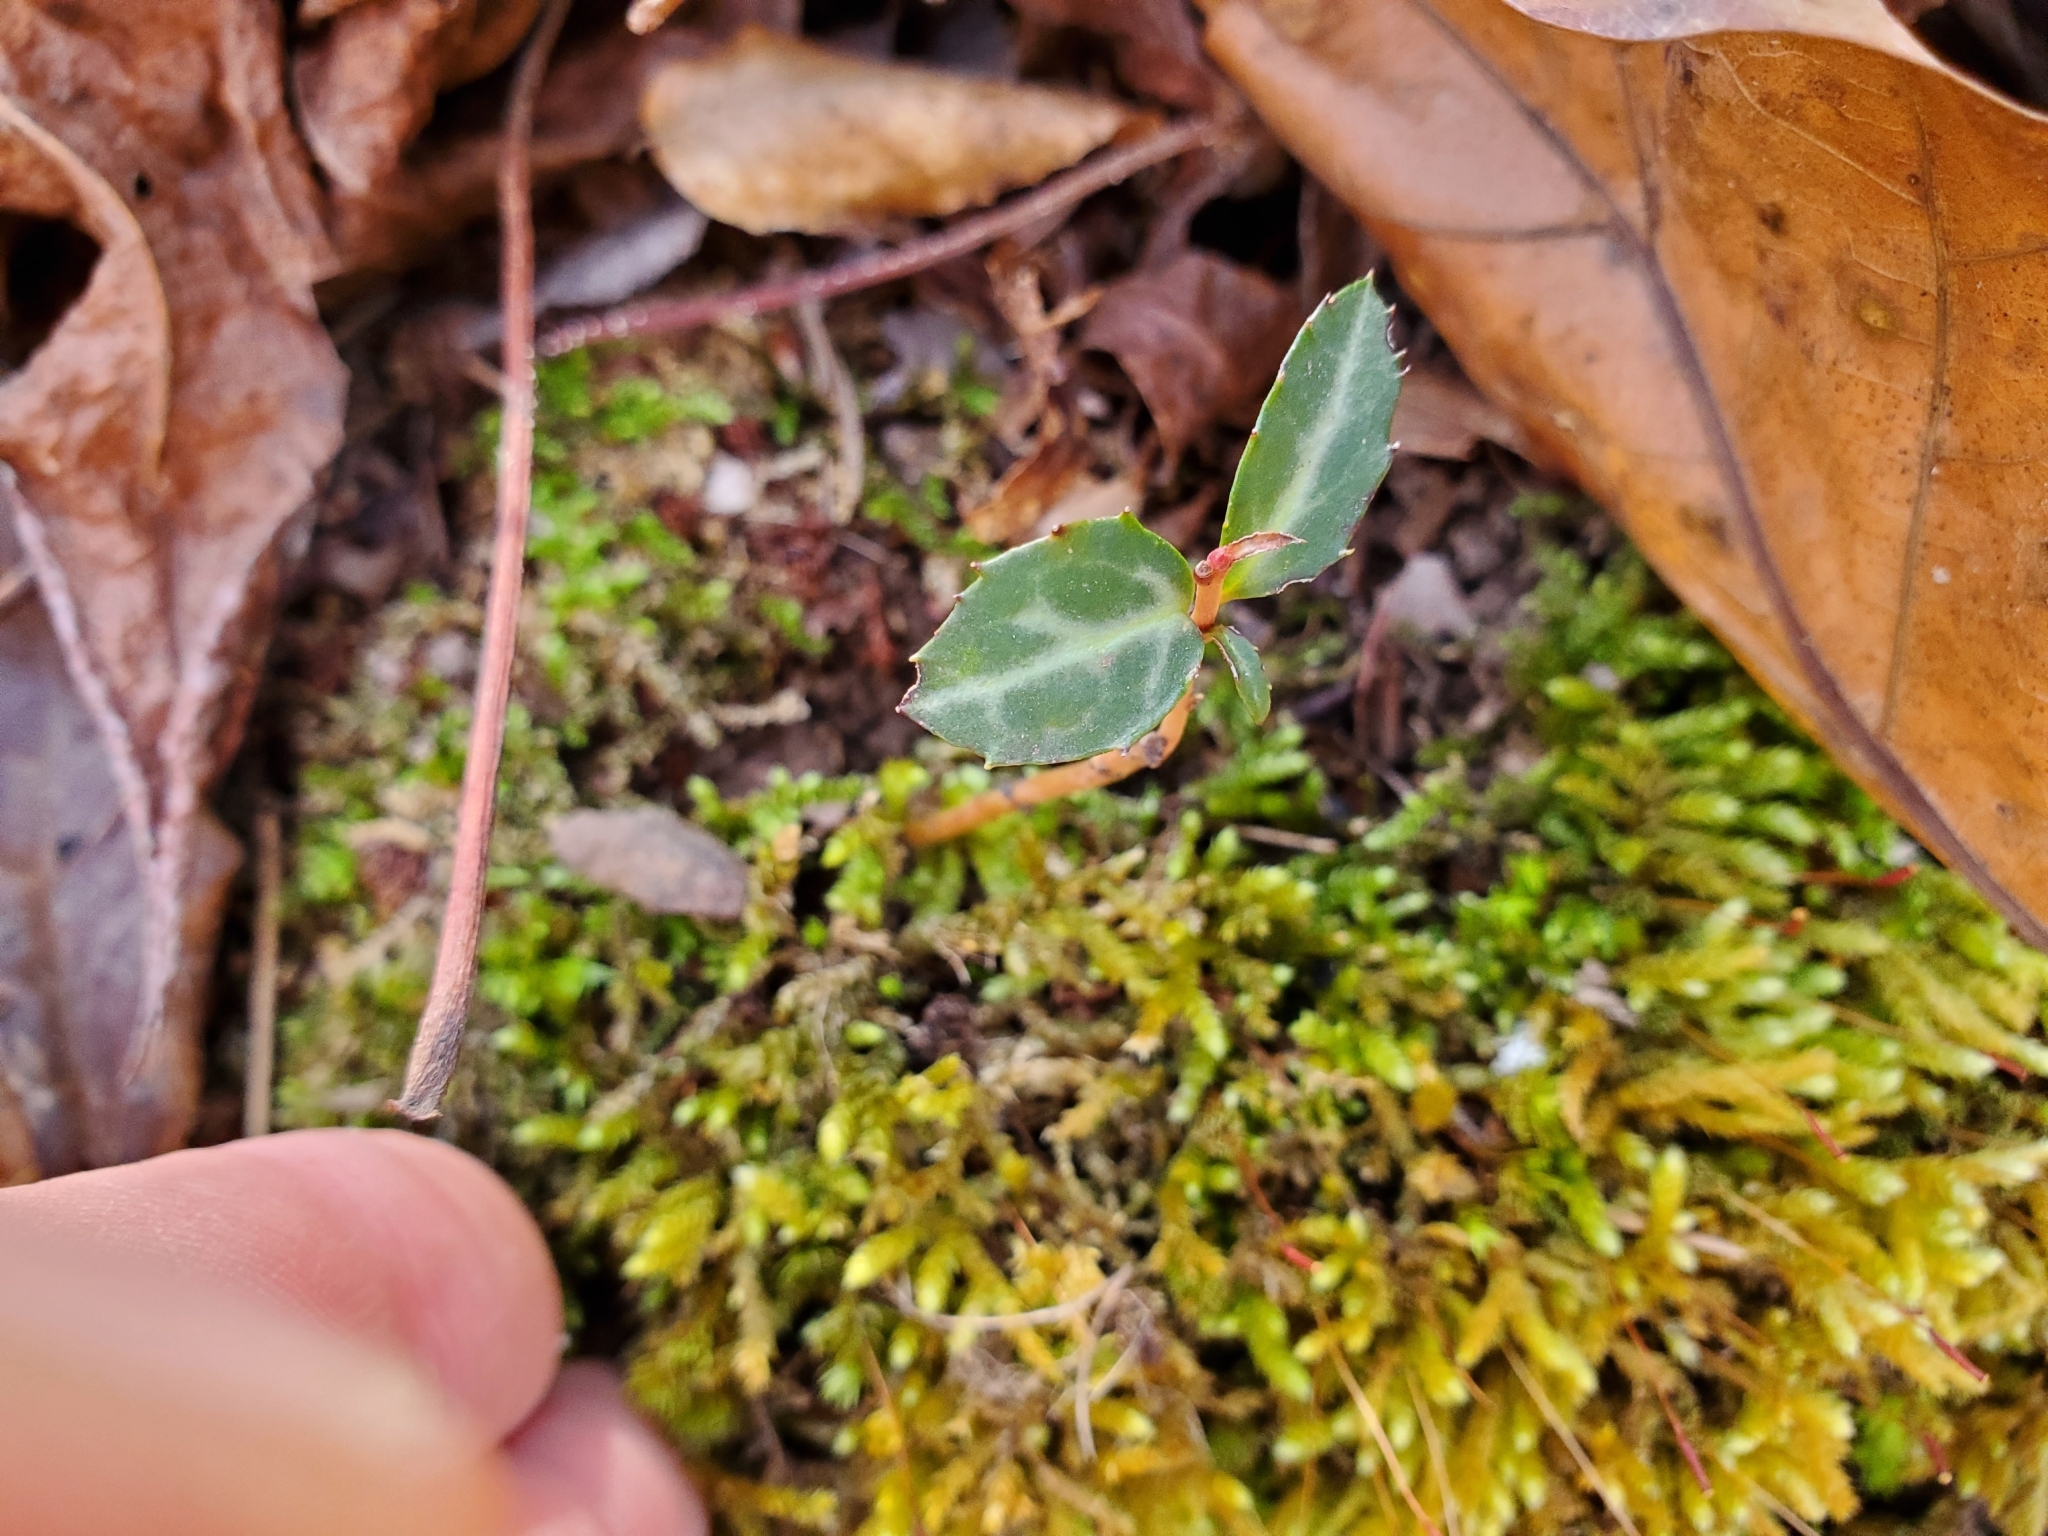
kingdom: Plantae
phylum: Tracheophyta
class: Magnoliopsida
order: Ericales
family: Ericaceae
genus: Chimaphila
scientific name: Chimaphila maculata
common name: Spotted pipsissewa
